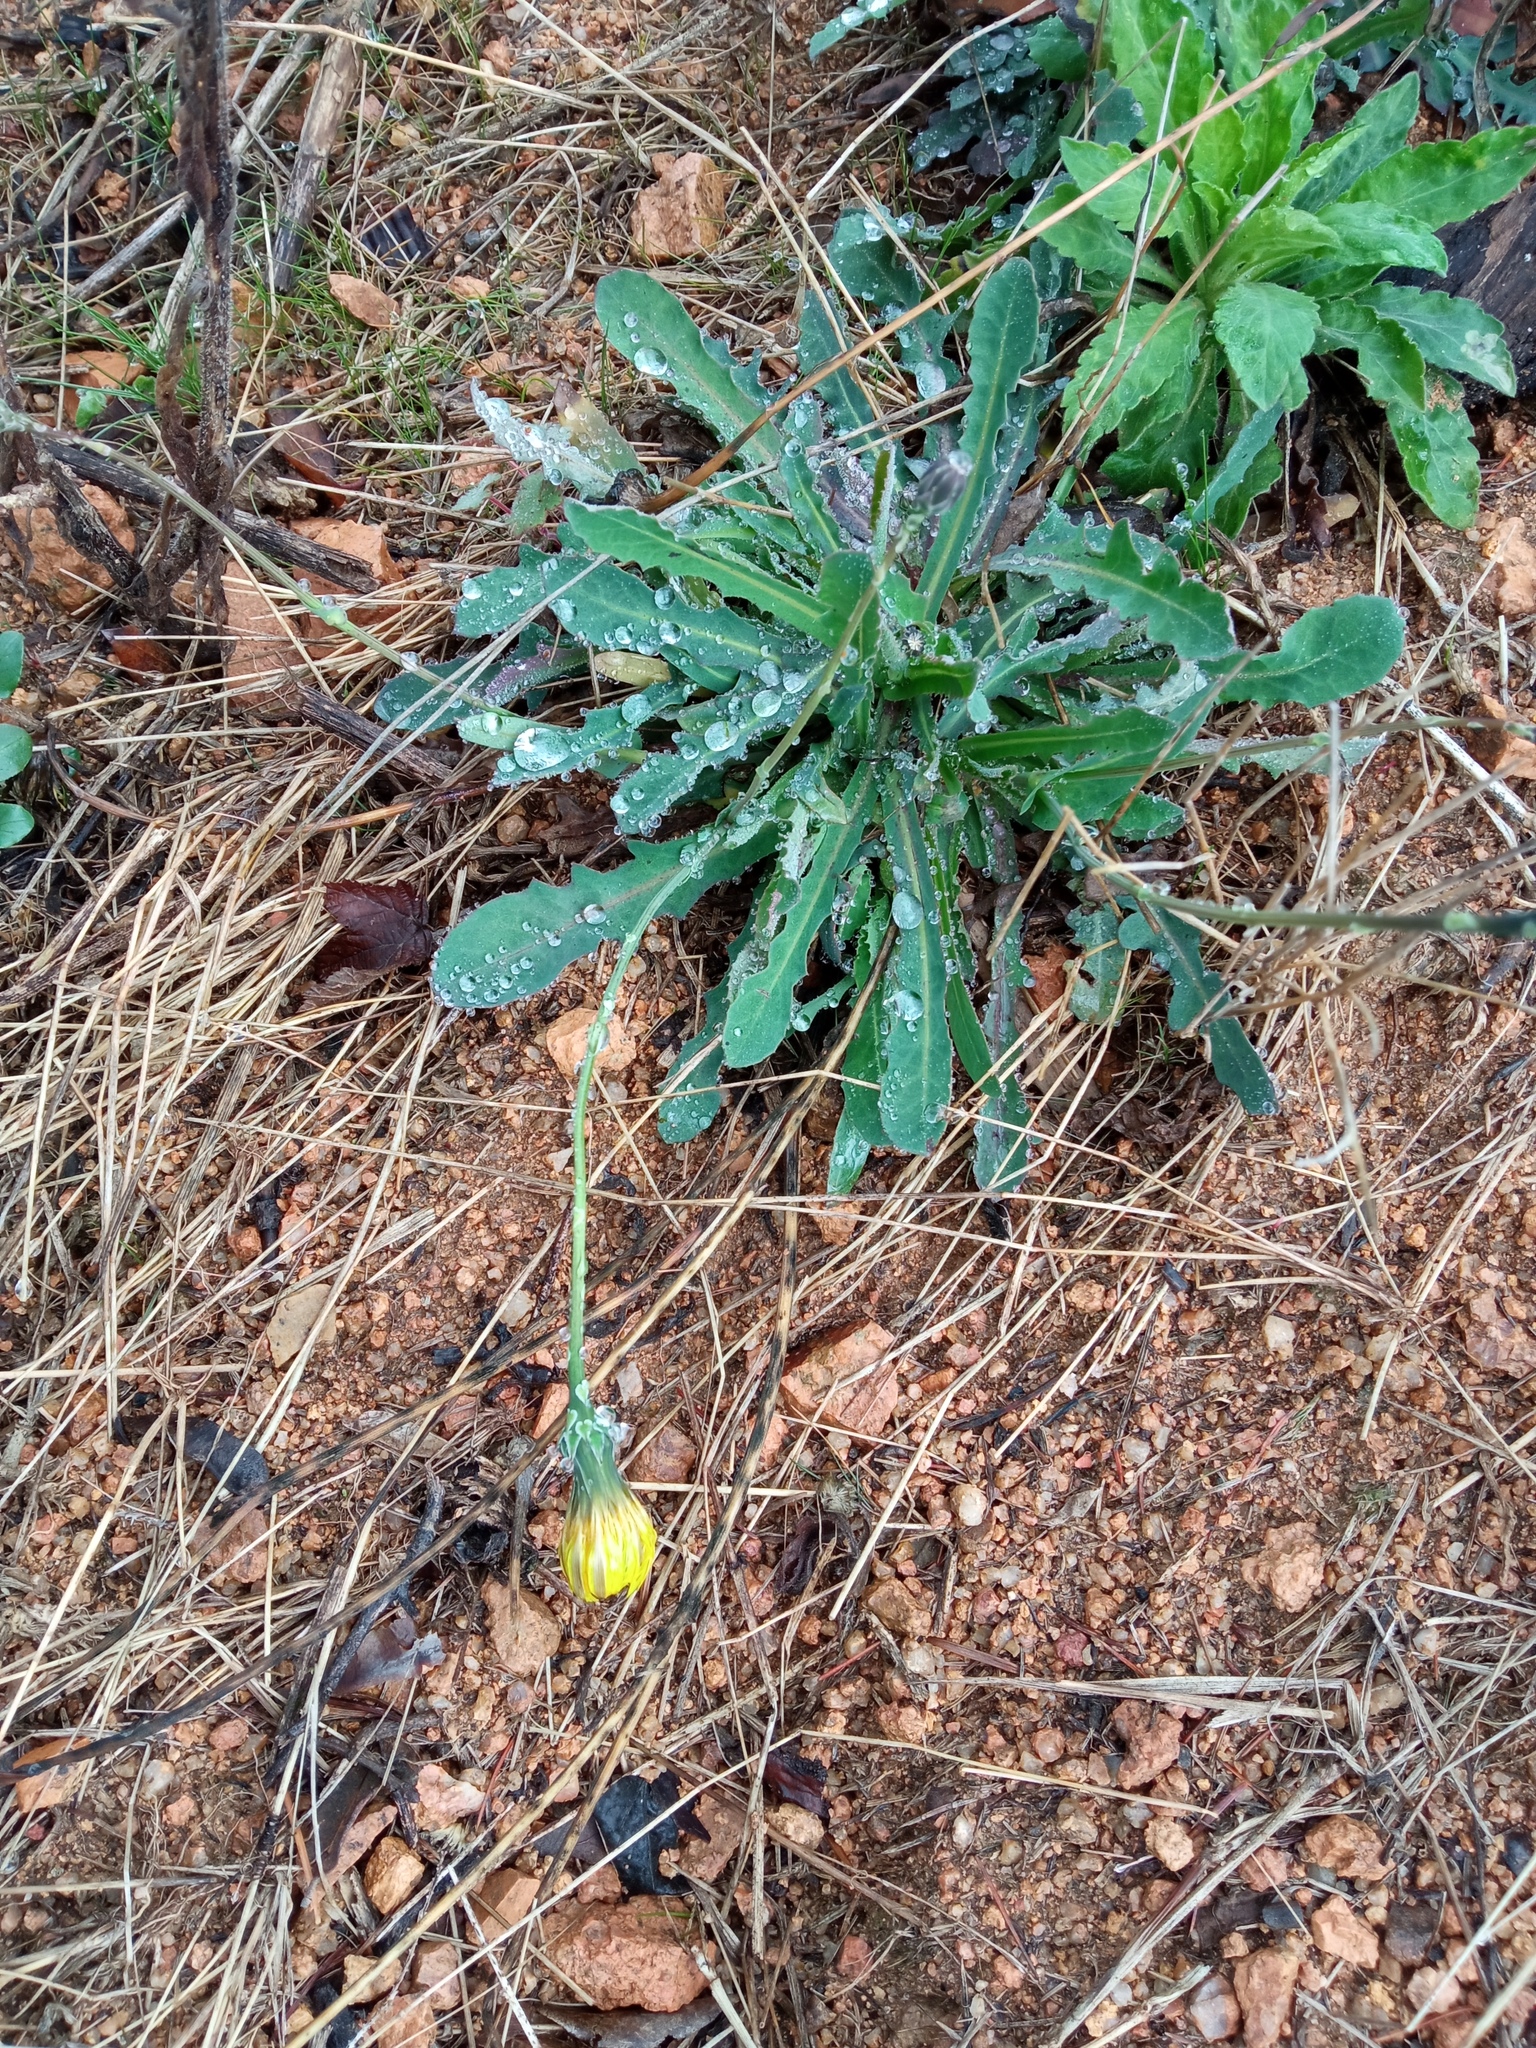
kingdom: Plantae
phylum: Tracheophyta
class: Magnoliopsida
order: Asterales
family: Asteraceae
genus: Reichardia
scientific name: Reichardia picroides
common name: Common brighteyes
